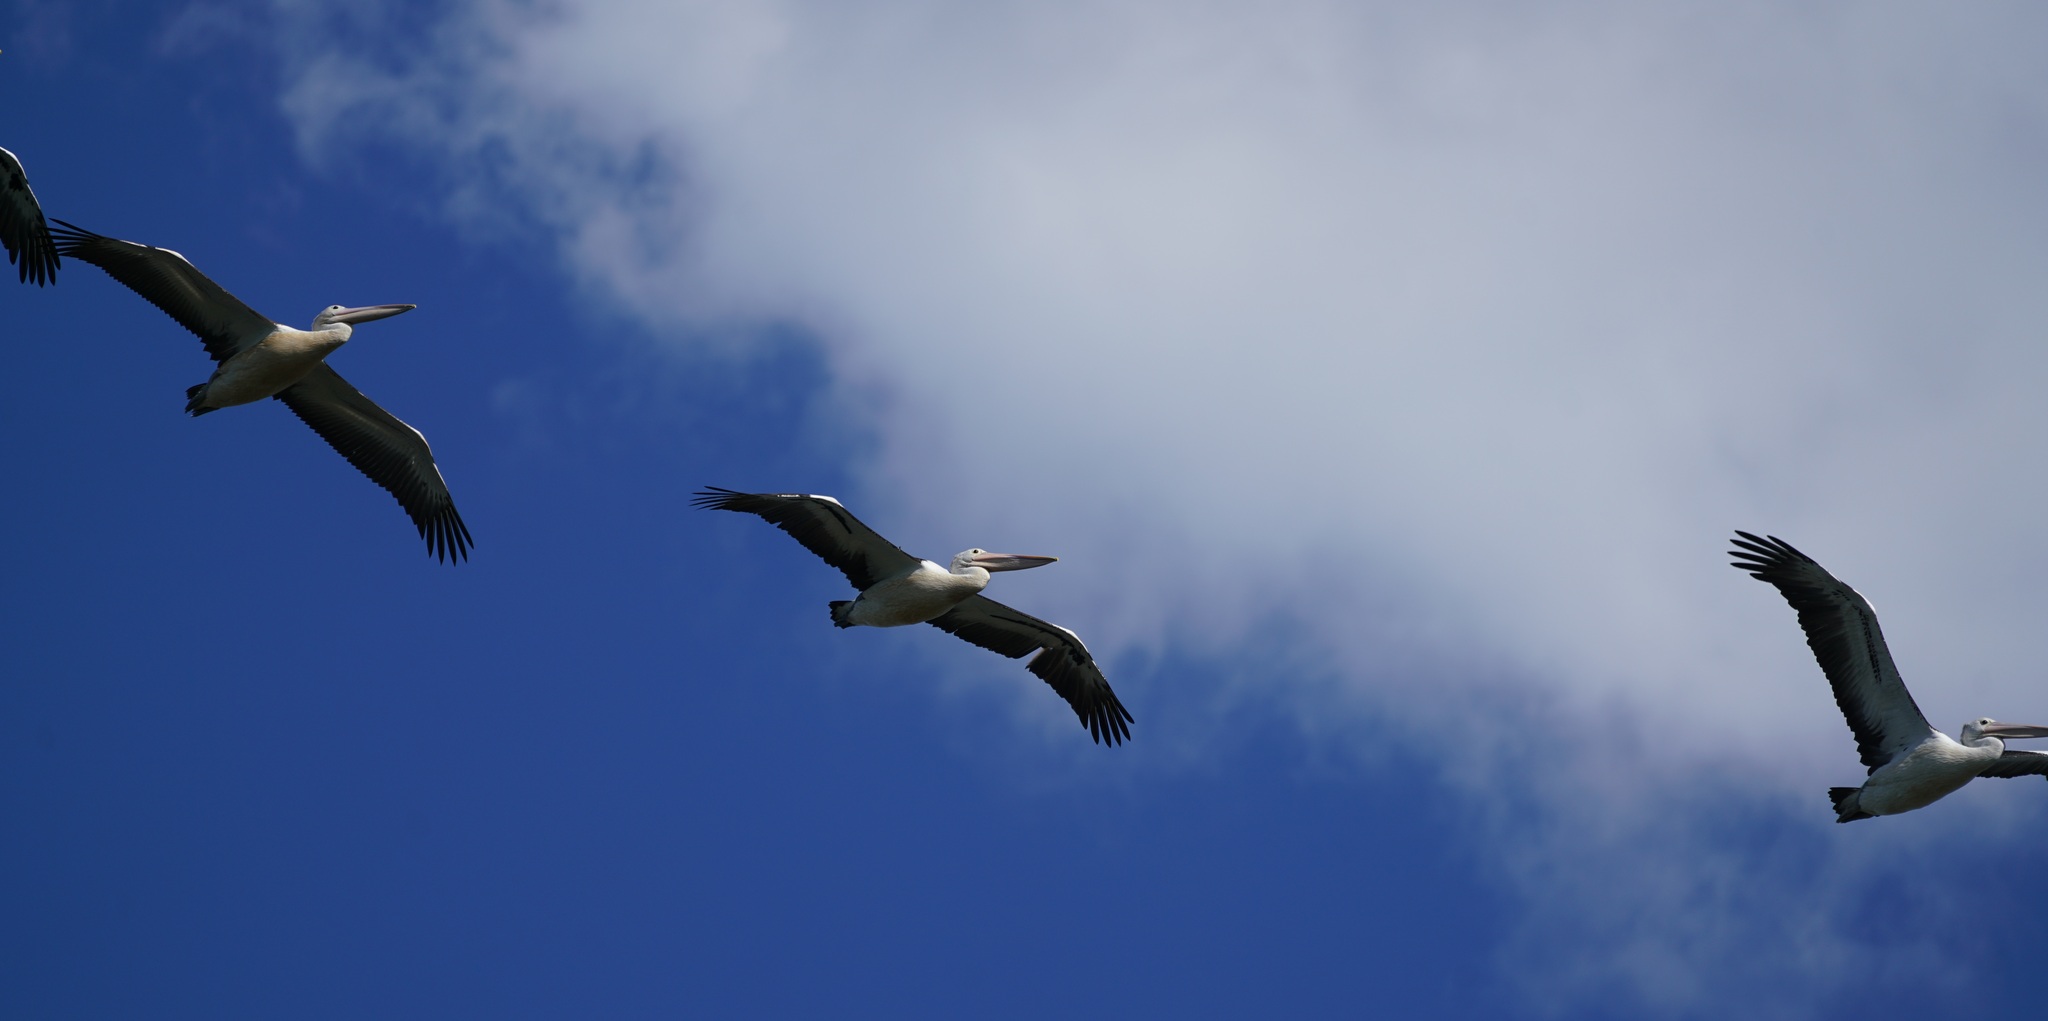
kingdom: Animalia
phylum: Chordata
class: Aves
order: Pelecaniformes
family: Pelecanidae
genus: Pelecanus
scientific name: Pelecanus conspicillatus
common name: Australian pelican
